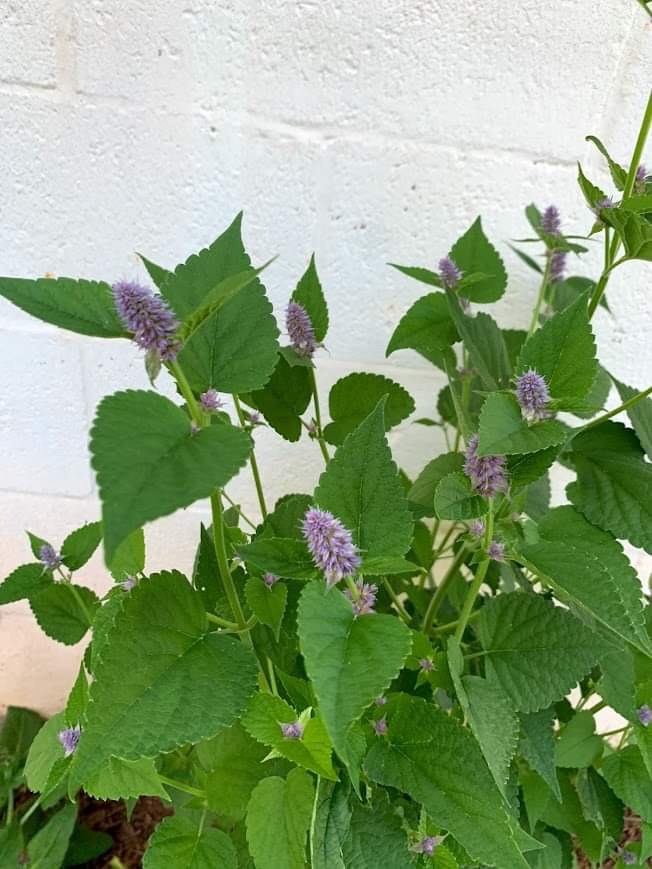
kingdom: Plantae
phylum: Tracheophyta
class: Magnoliopsida
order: Lamiales
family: Lamiaceae
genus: Agastache
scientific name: Agastache foeniculum
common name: Anise hyssop
